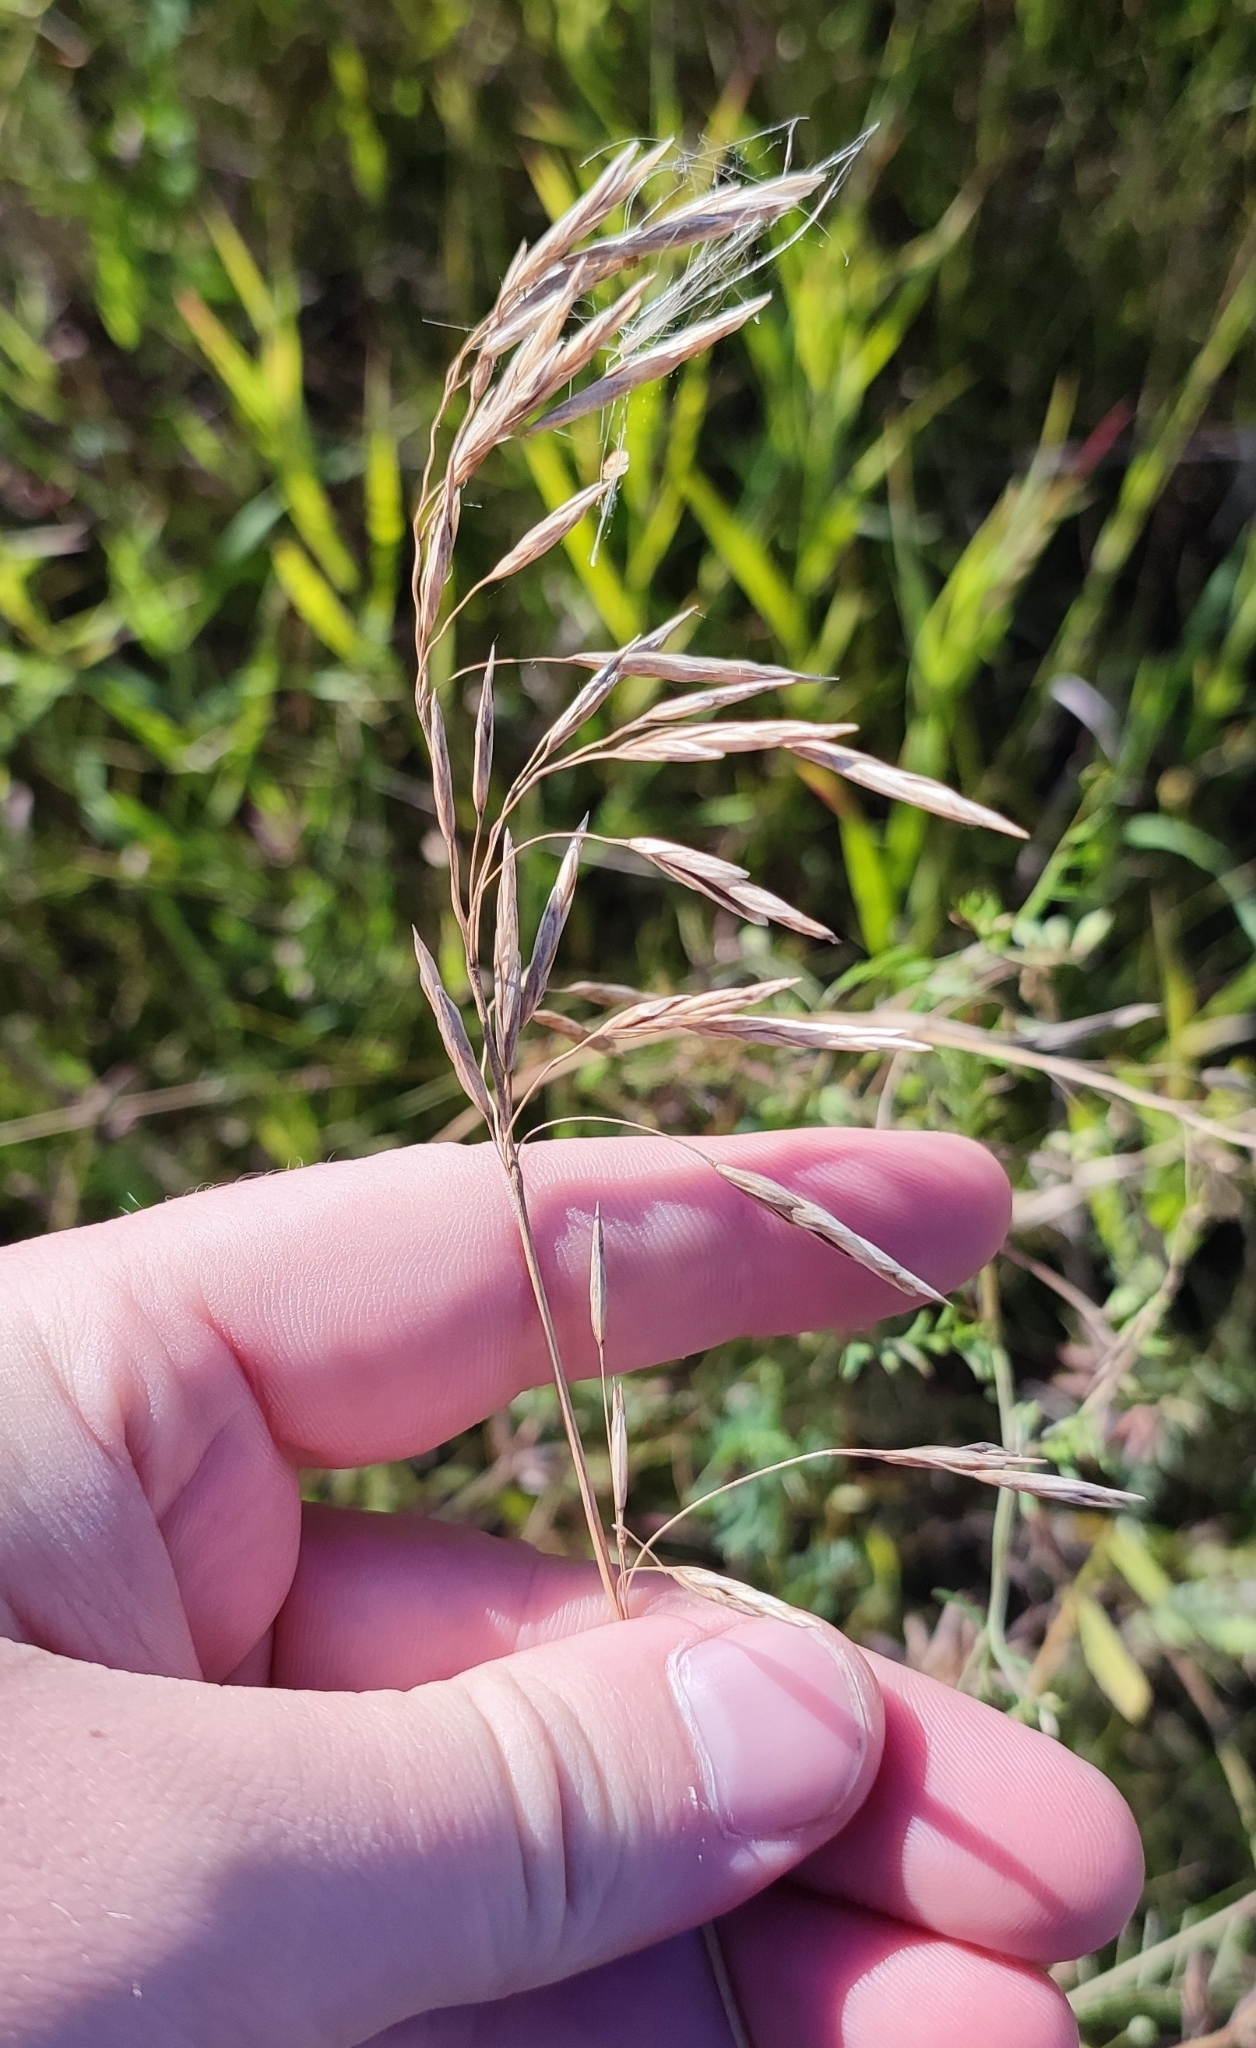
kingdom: Plantae
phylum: Tracheophyta
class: Liliopsida
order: Poales
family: Poaceae
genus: Bromus
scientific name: Bromus inermis
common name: Smooth brome
